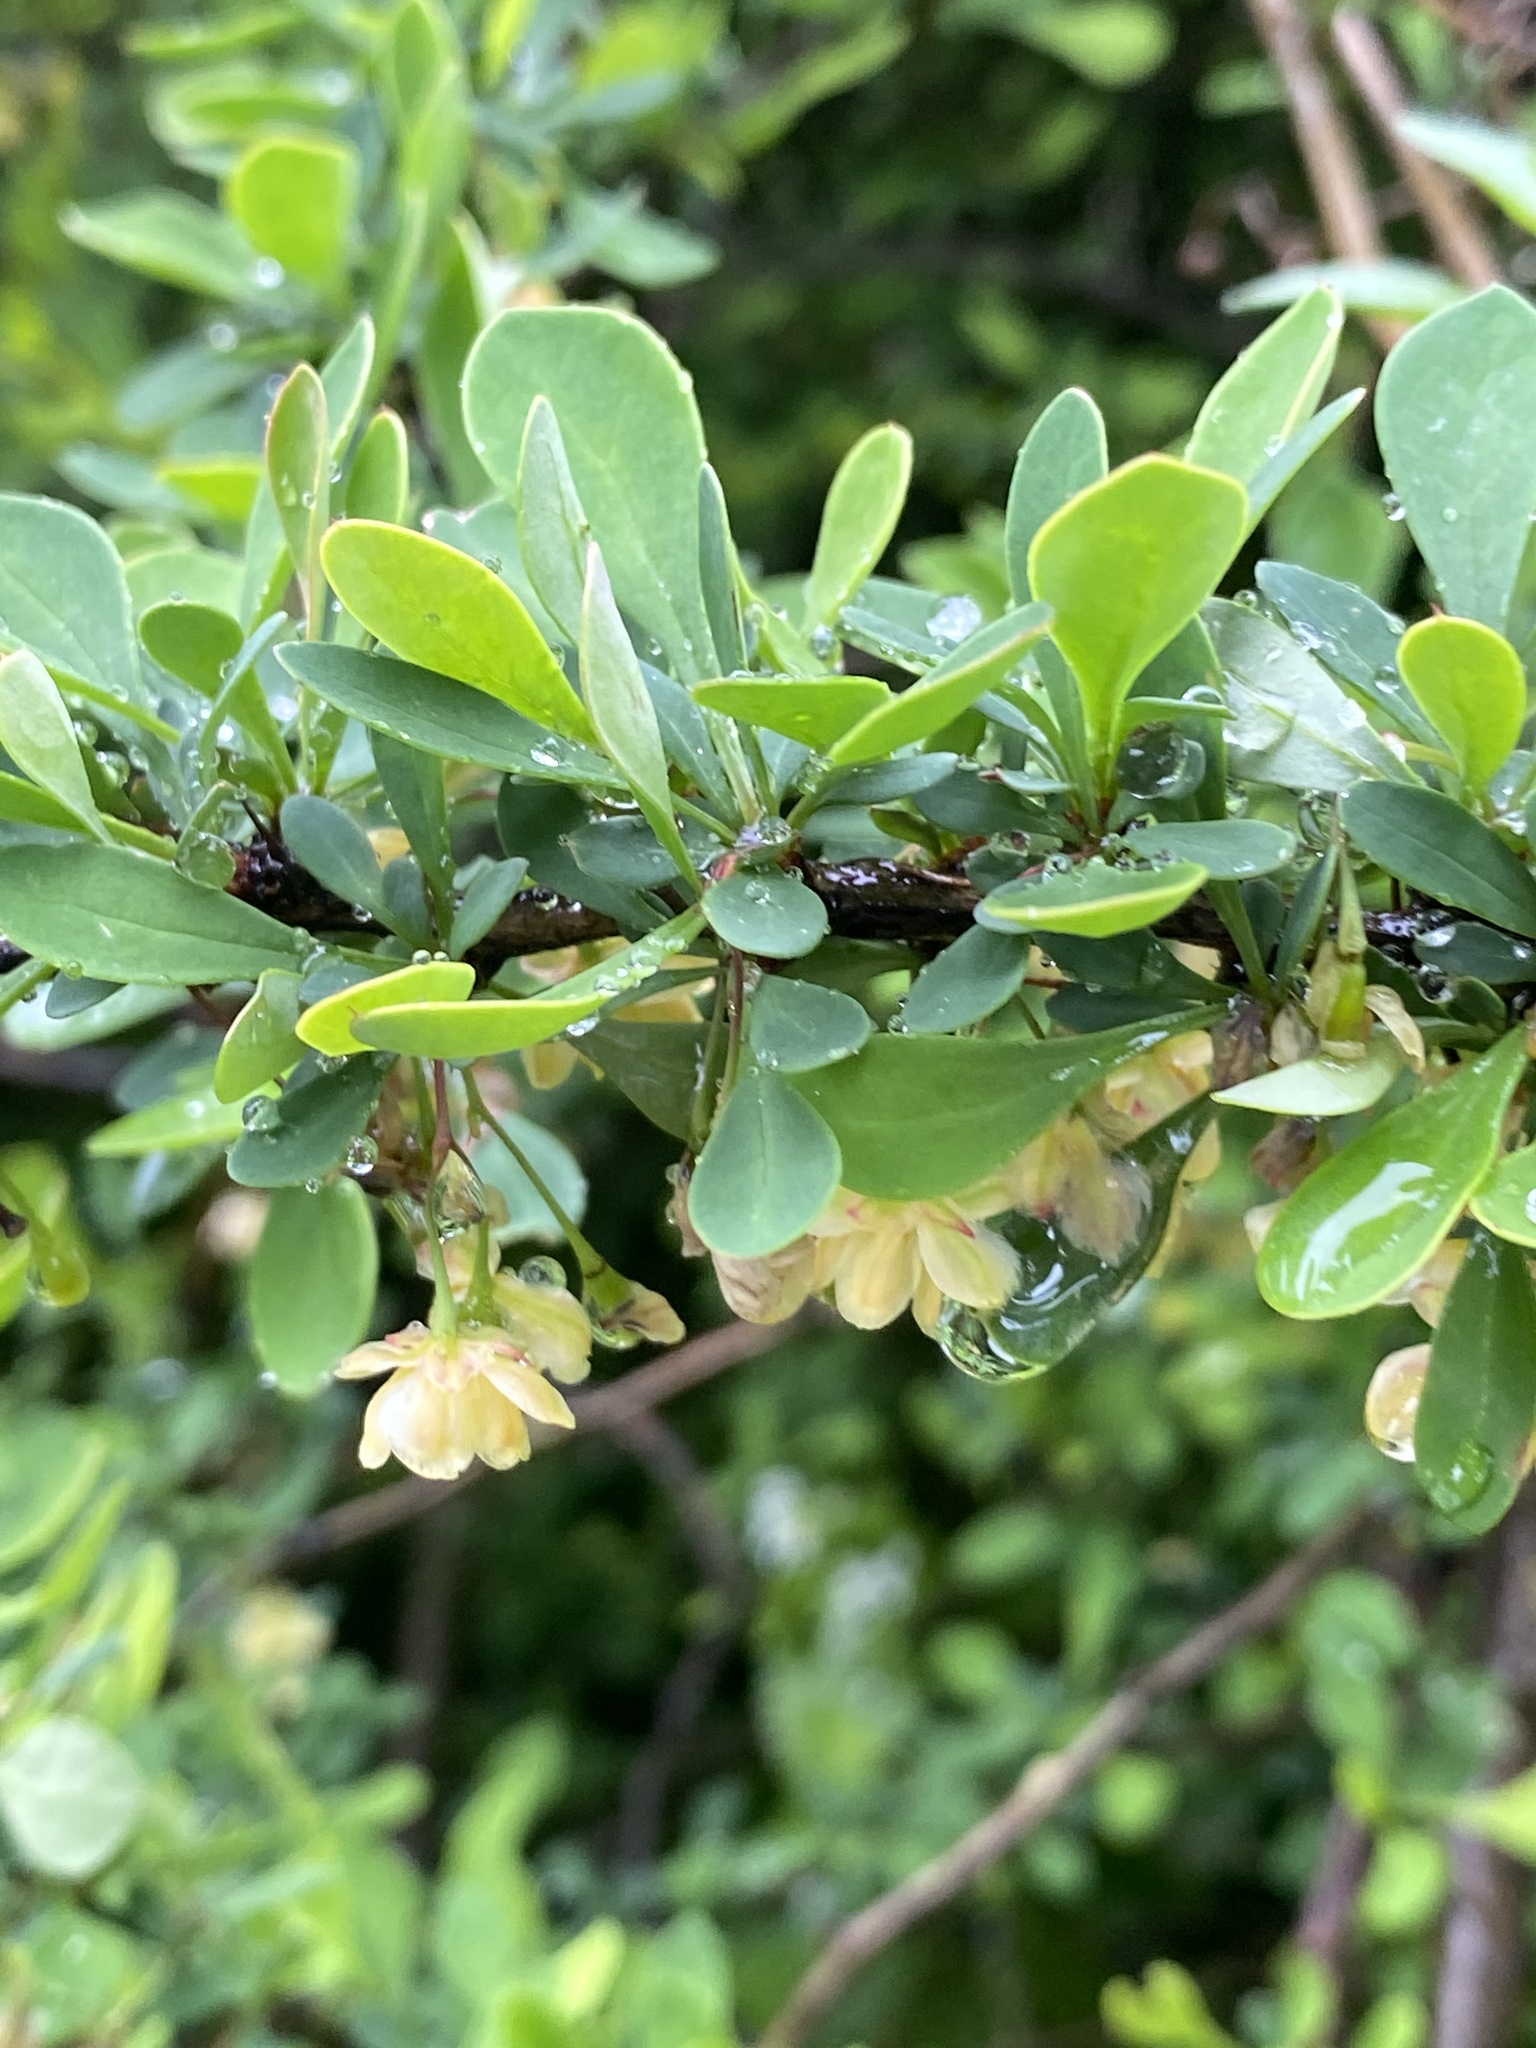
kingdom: Plantae
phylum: Tracheophyta
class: Magnoliopsida
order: Ranunculales
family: Berberidaceae
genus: Berberis
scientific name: Berberis thunbergii
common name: Japanese barberry
